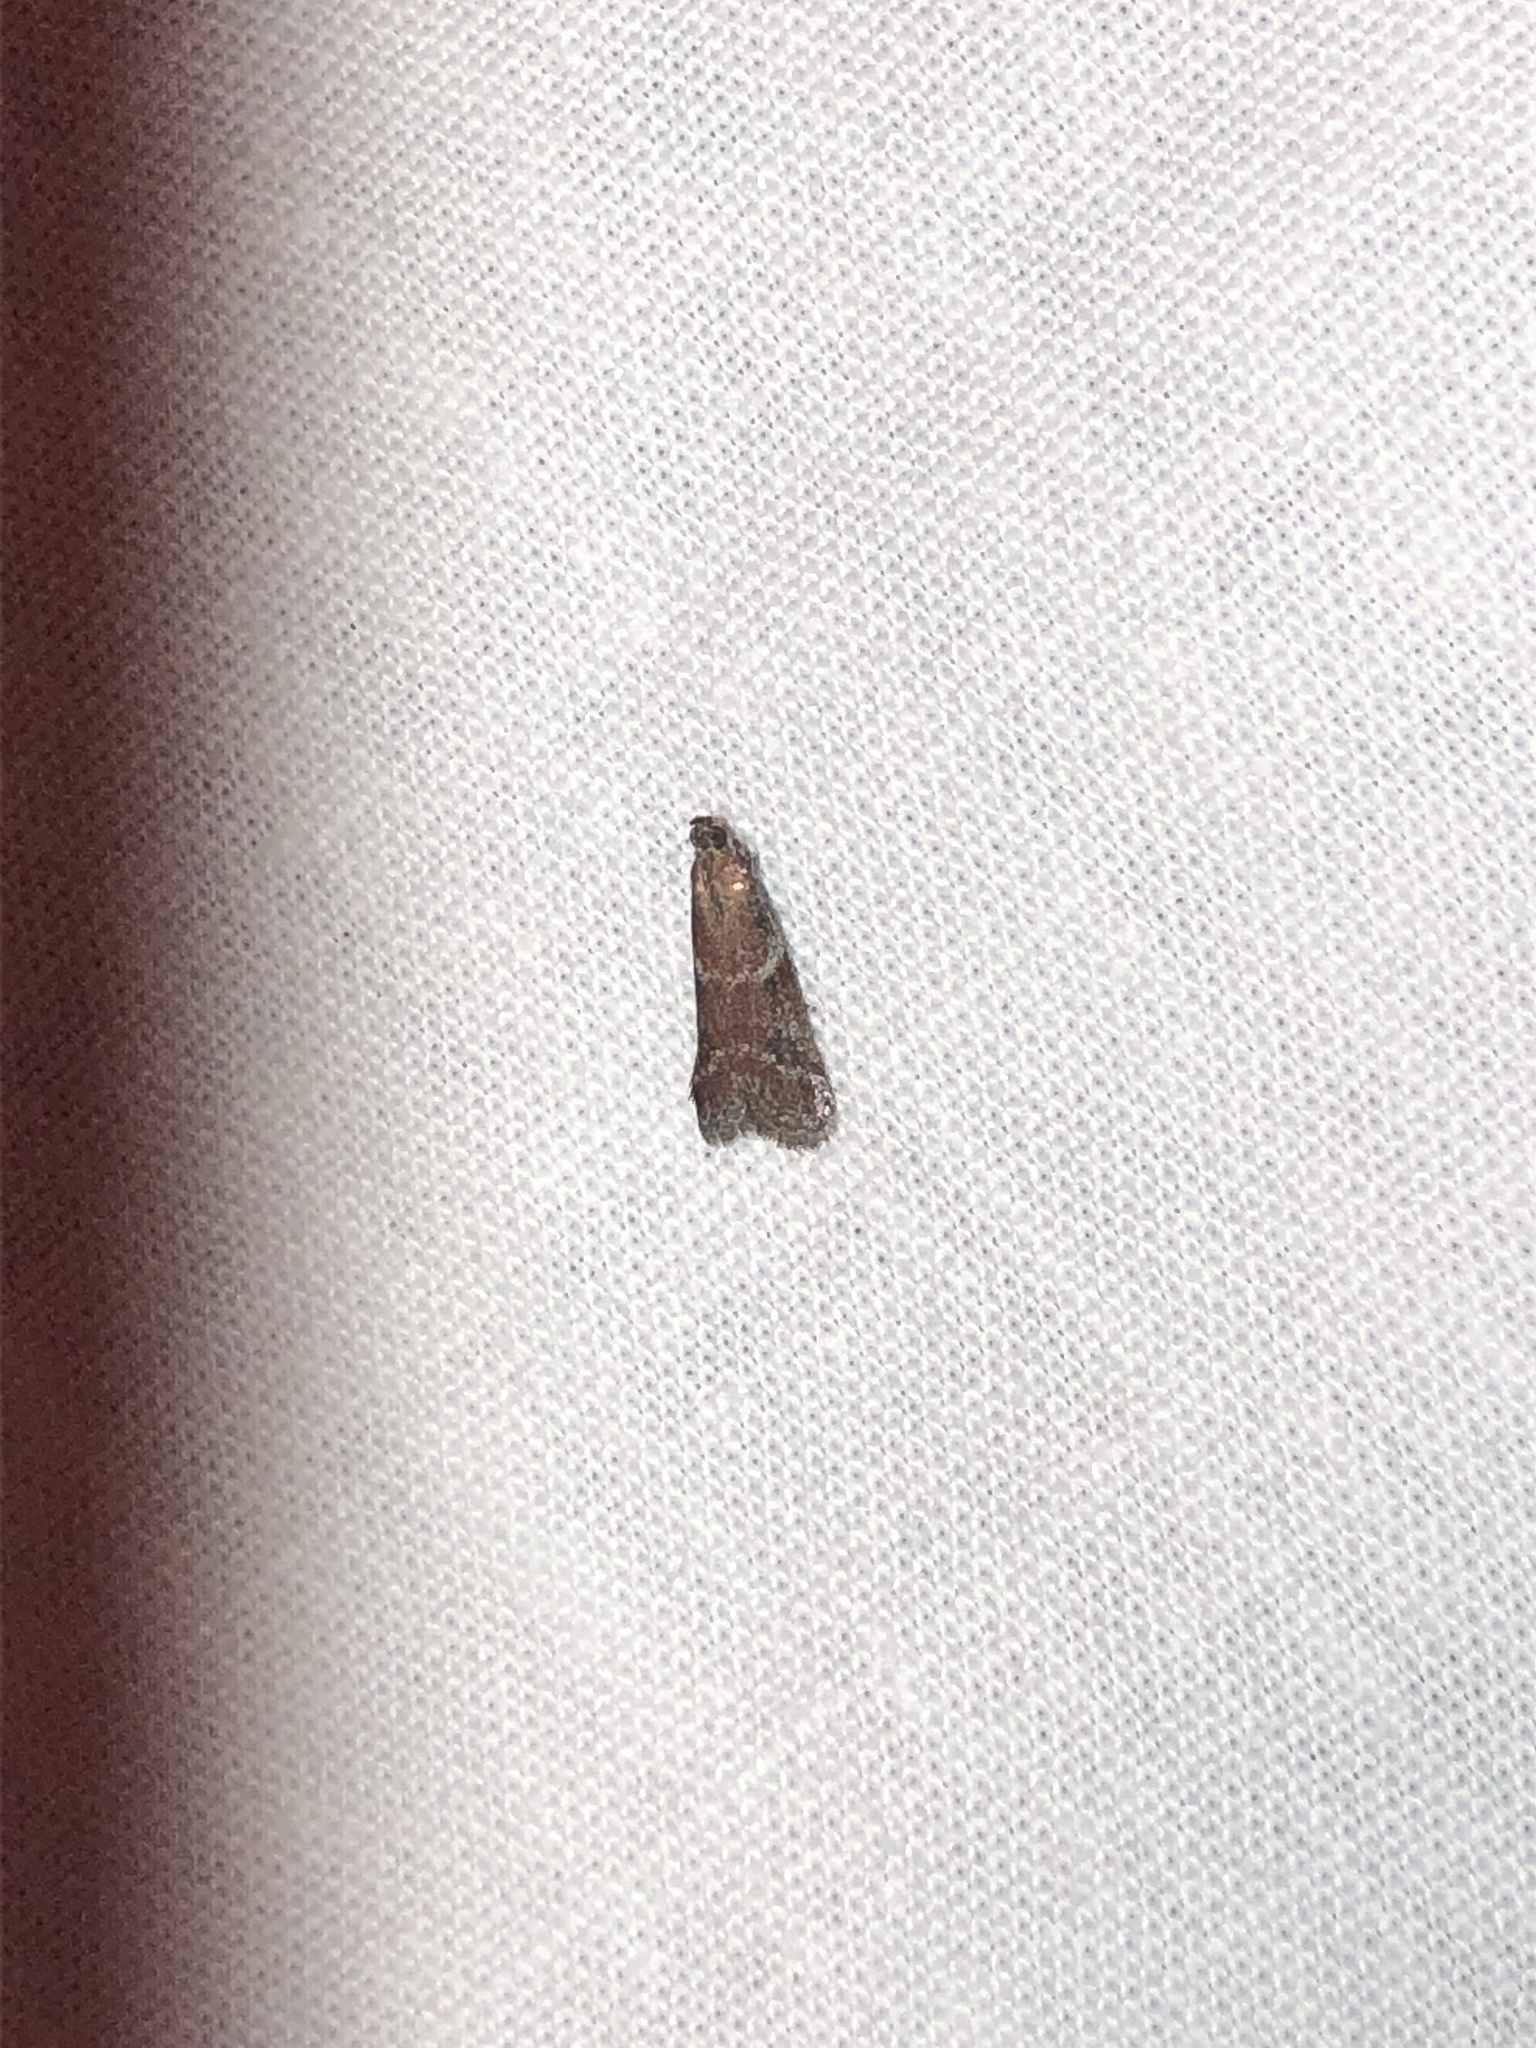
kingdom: Animalia
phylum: Arthropoda
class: Insecta
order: Lepidoptera
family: Pyralidae
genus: Ephestiodes
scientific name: Ephestiodes erythrella
